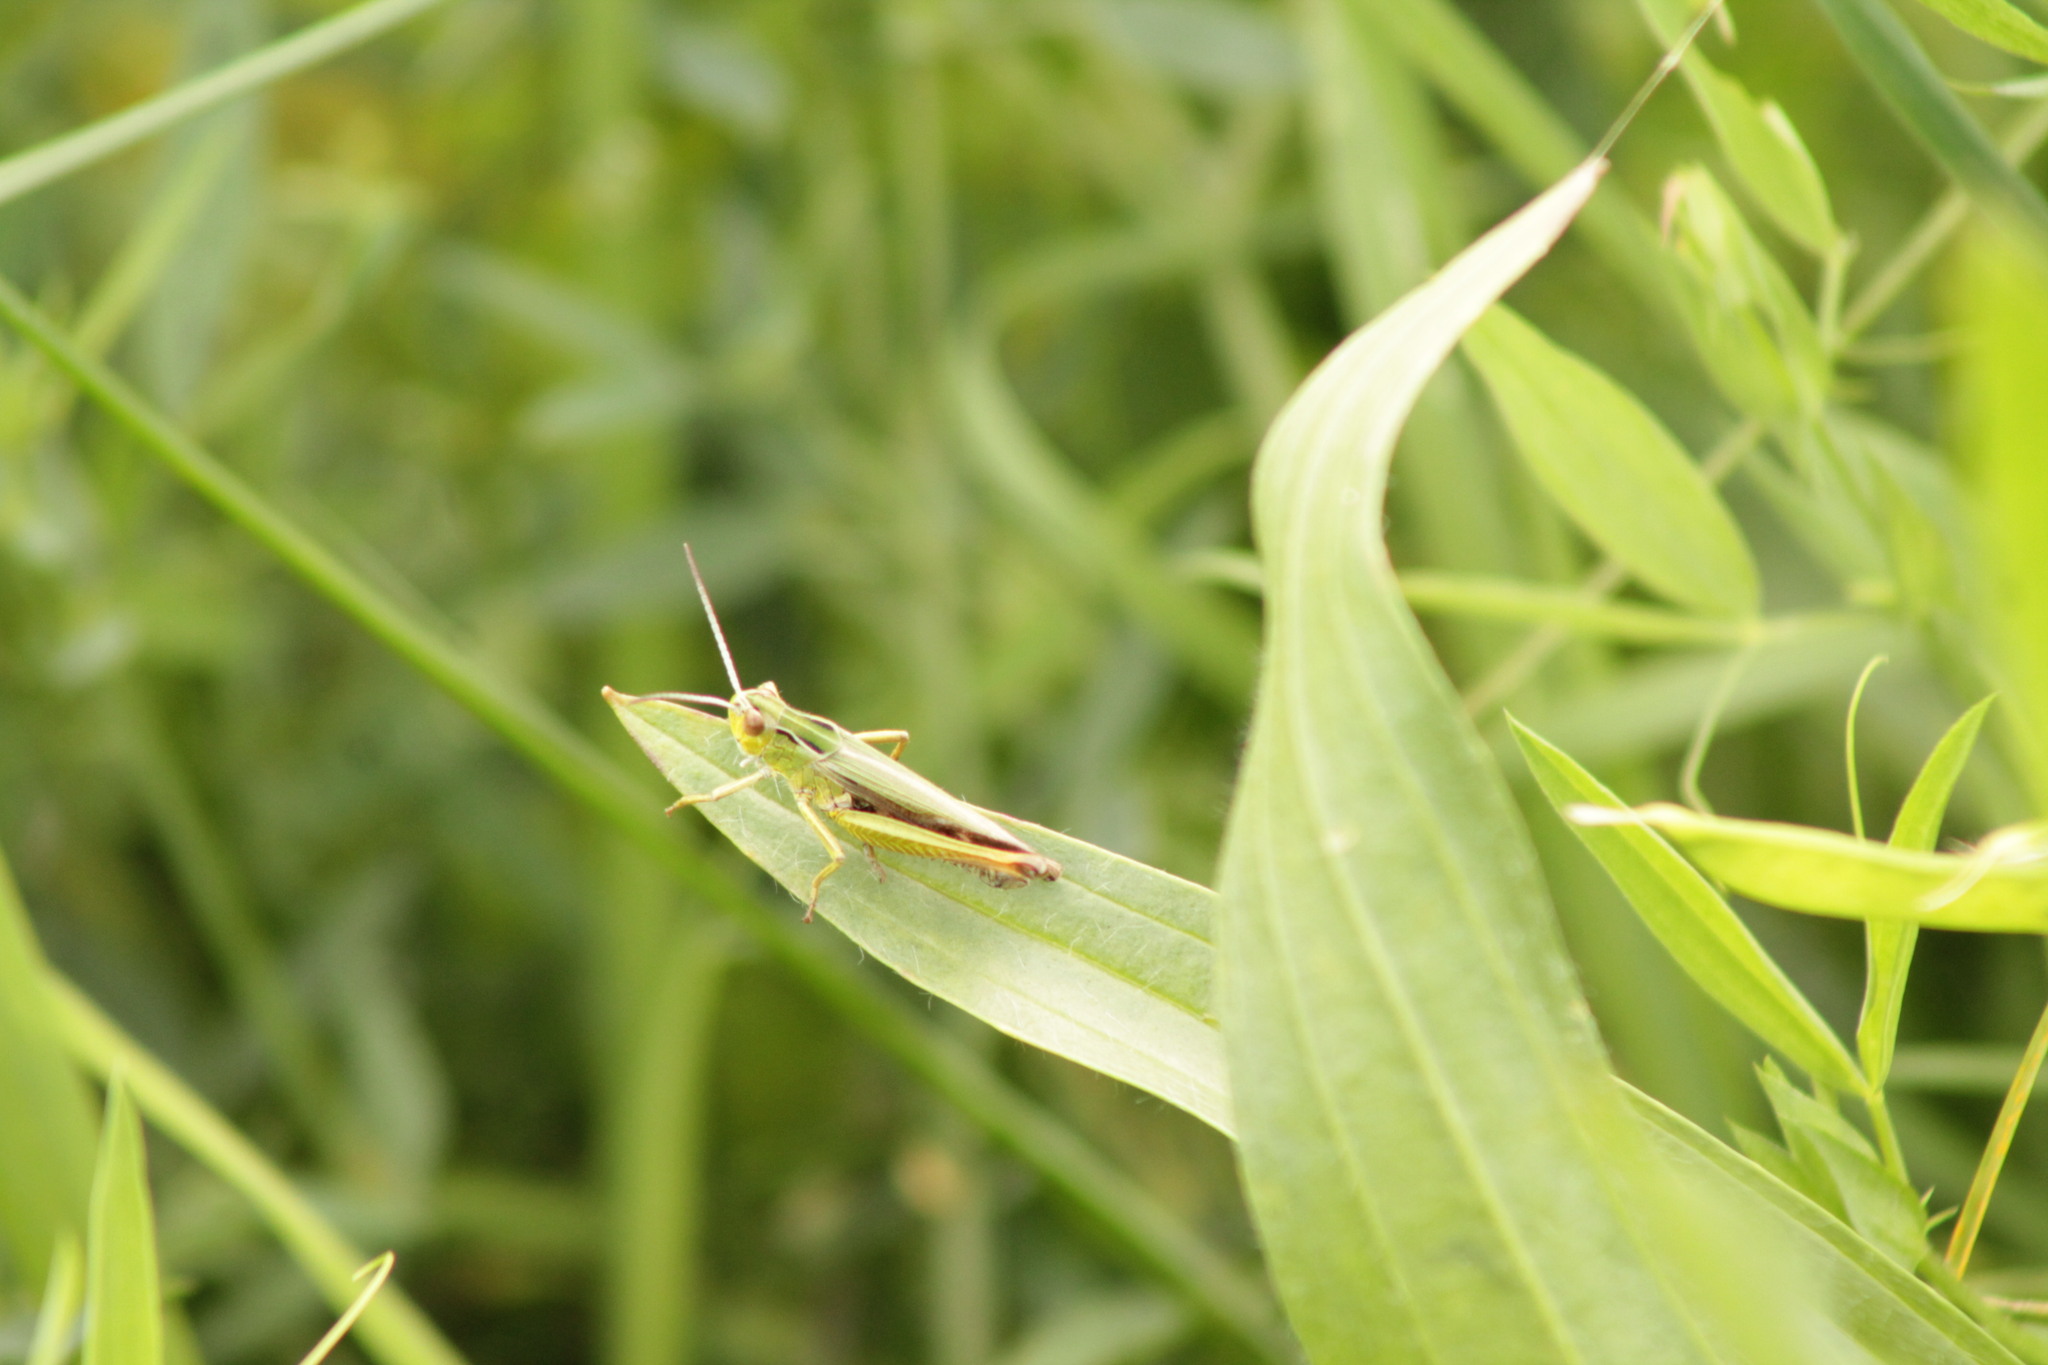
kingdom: Animalia
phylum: Arthropoda
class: Insecta
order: Orthoptera
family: Acrididae
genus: Omocestus
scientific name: Omocestus viridulus
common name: Common green grasshopper
